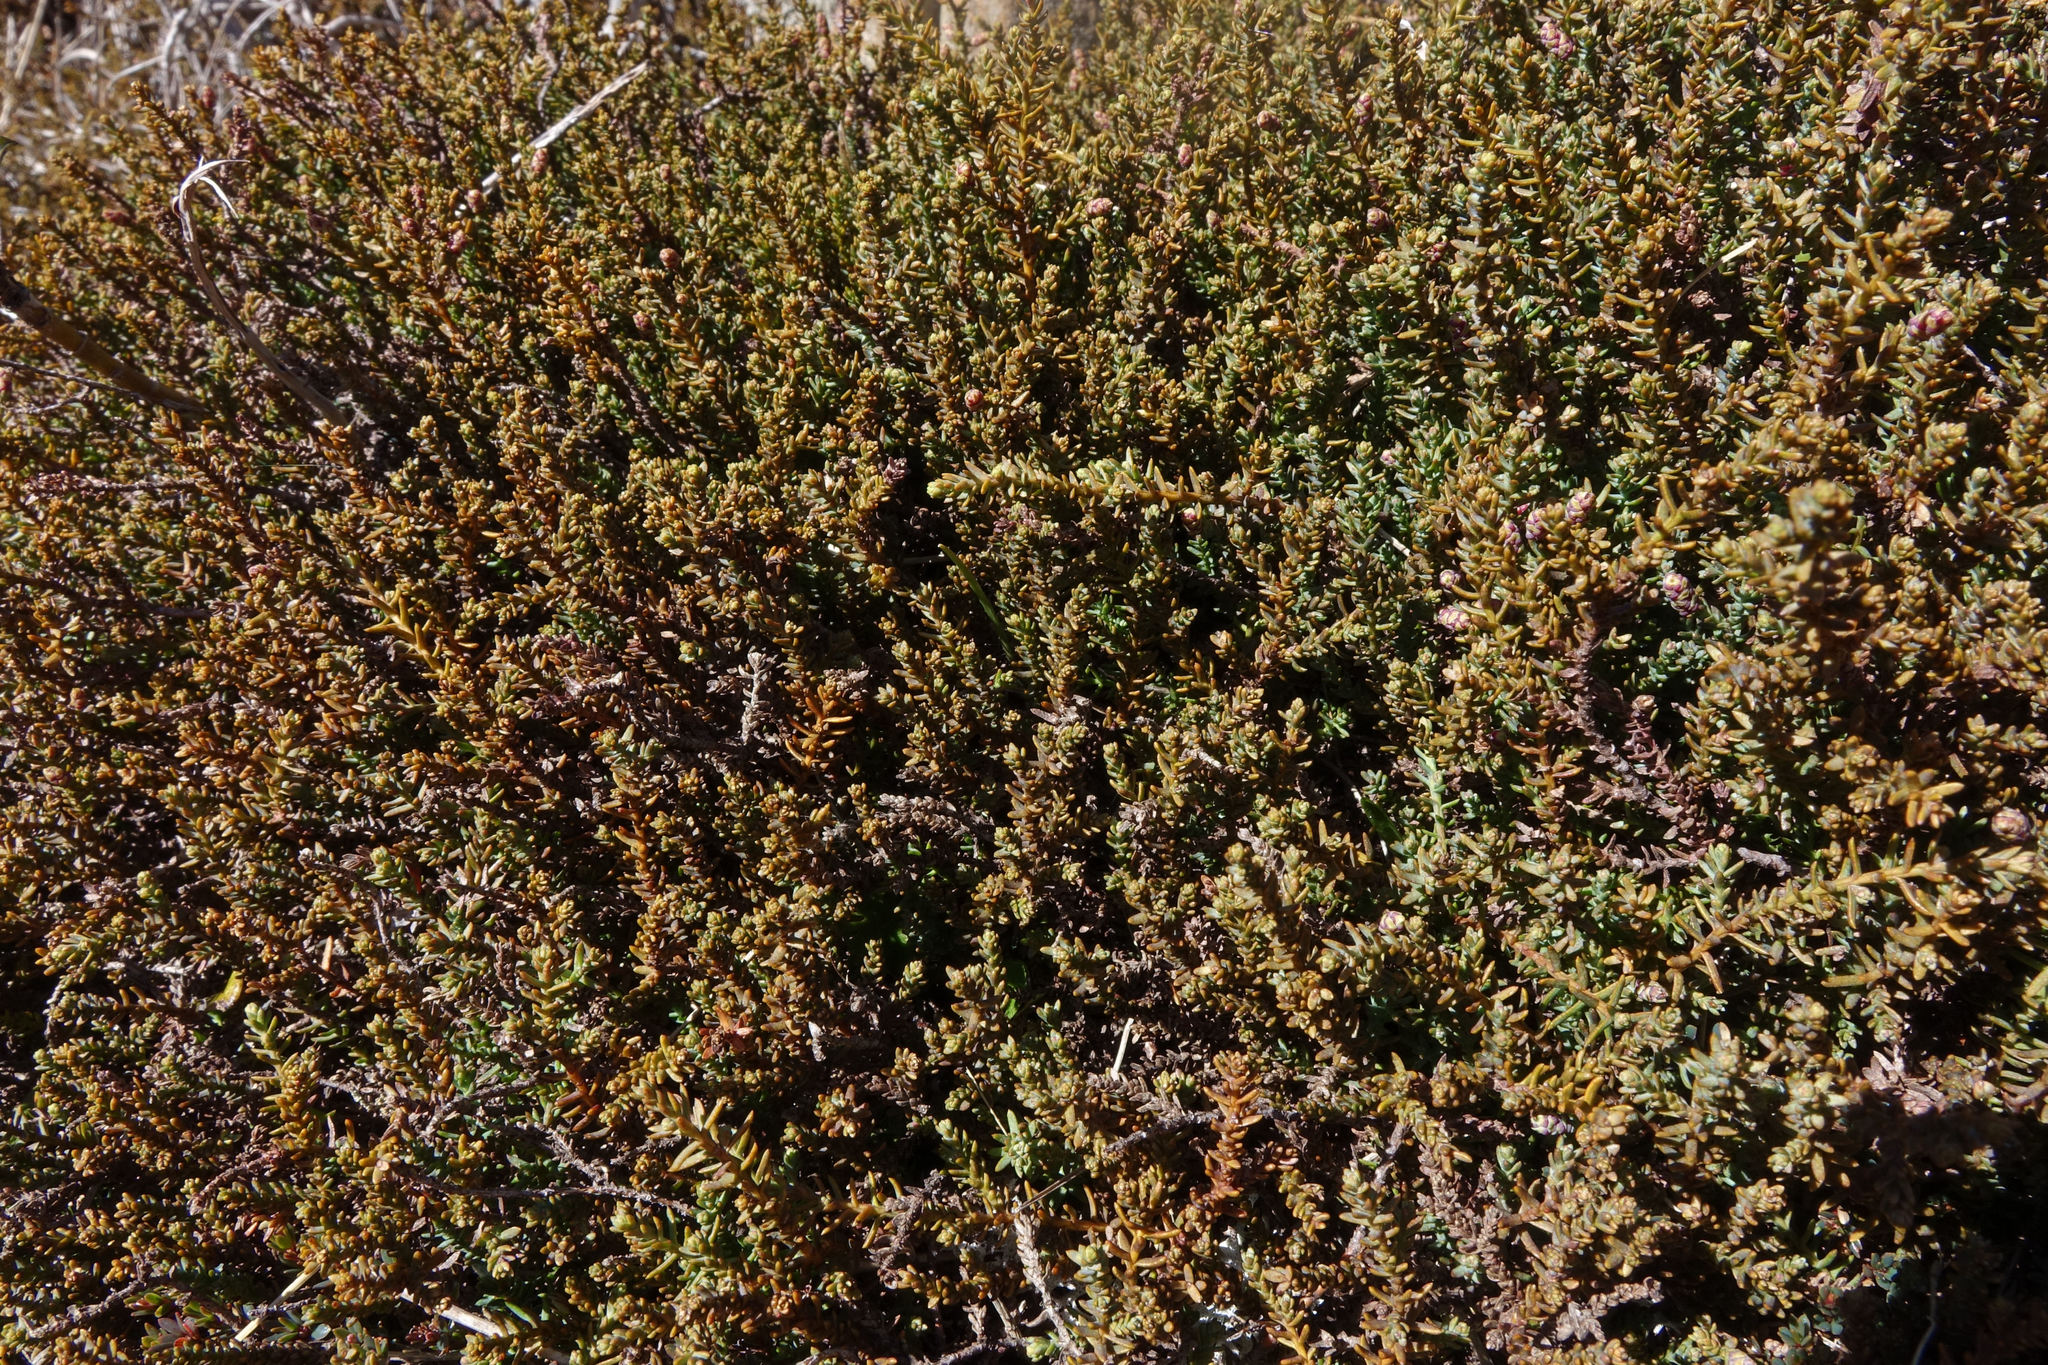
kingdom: Plantae
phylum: Tracheophyta
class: Pinopsida
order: Pinales
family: Podocarpaceae
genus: Lepidothamnus
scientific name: Lepidothamnus laxifolius
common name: Pygmy pine
